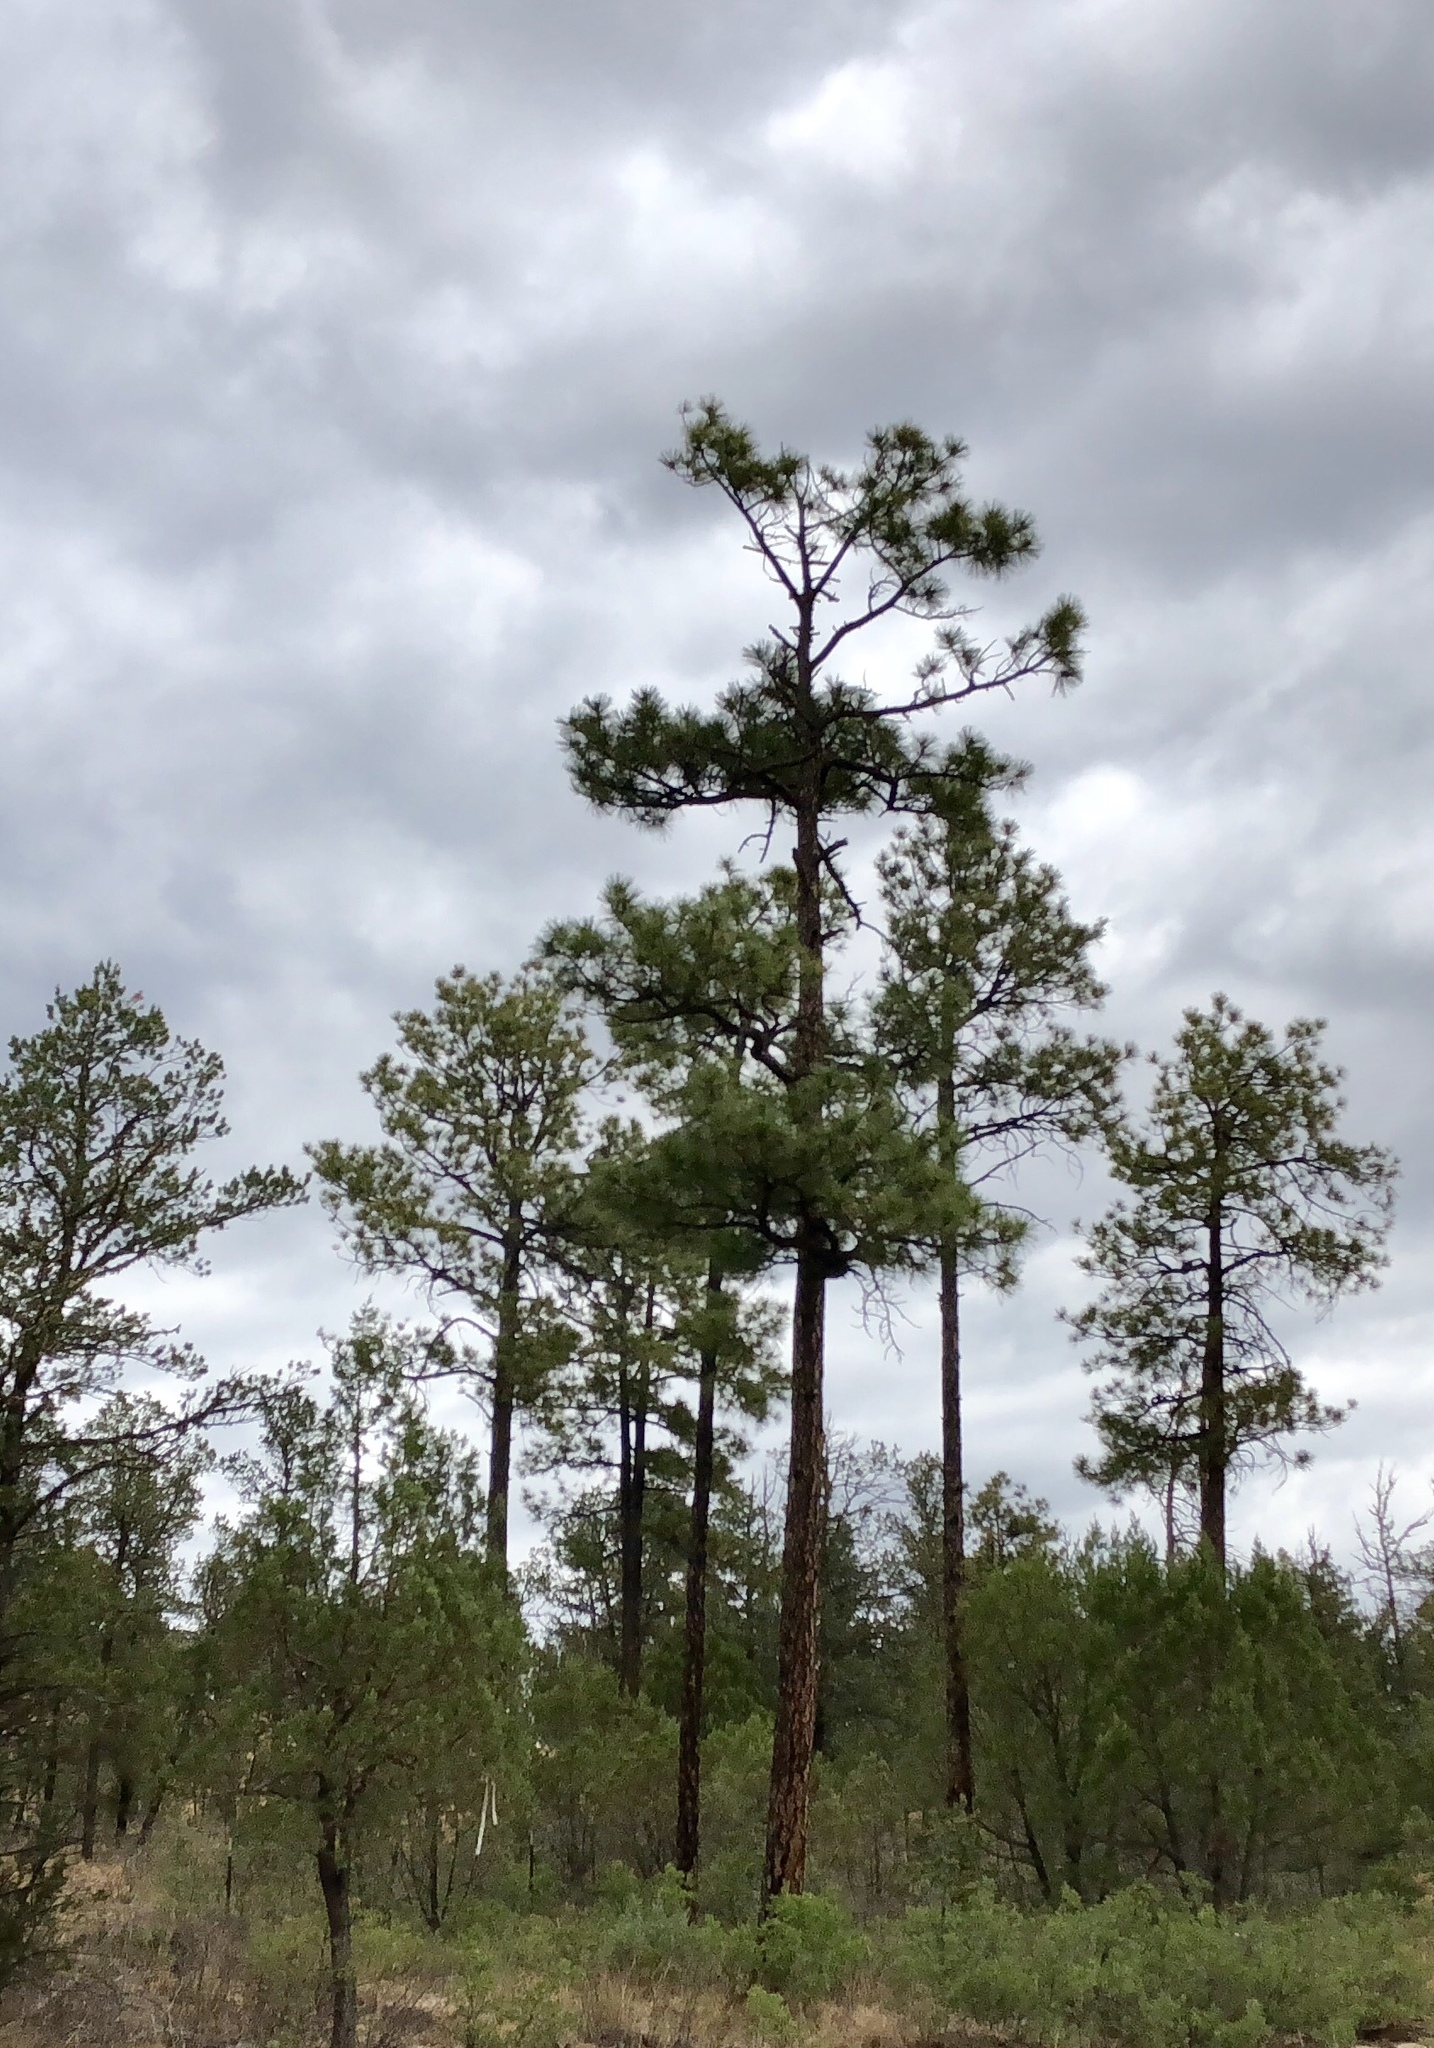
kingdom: Plantae
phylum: Tracheophyta
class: Pinopsida
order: Pinales
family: Pinaceae
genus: Pinus
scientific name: Pinus ponderosa
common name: Western yellow-pine
